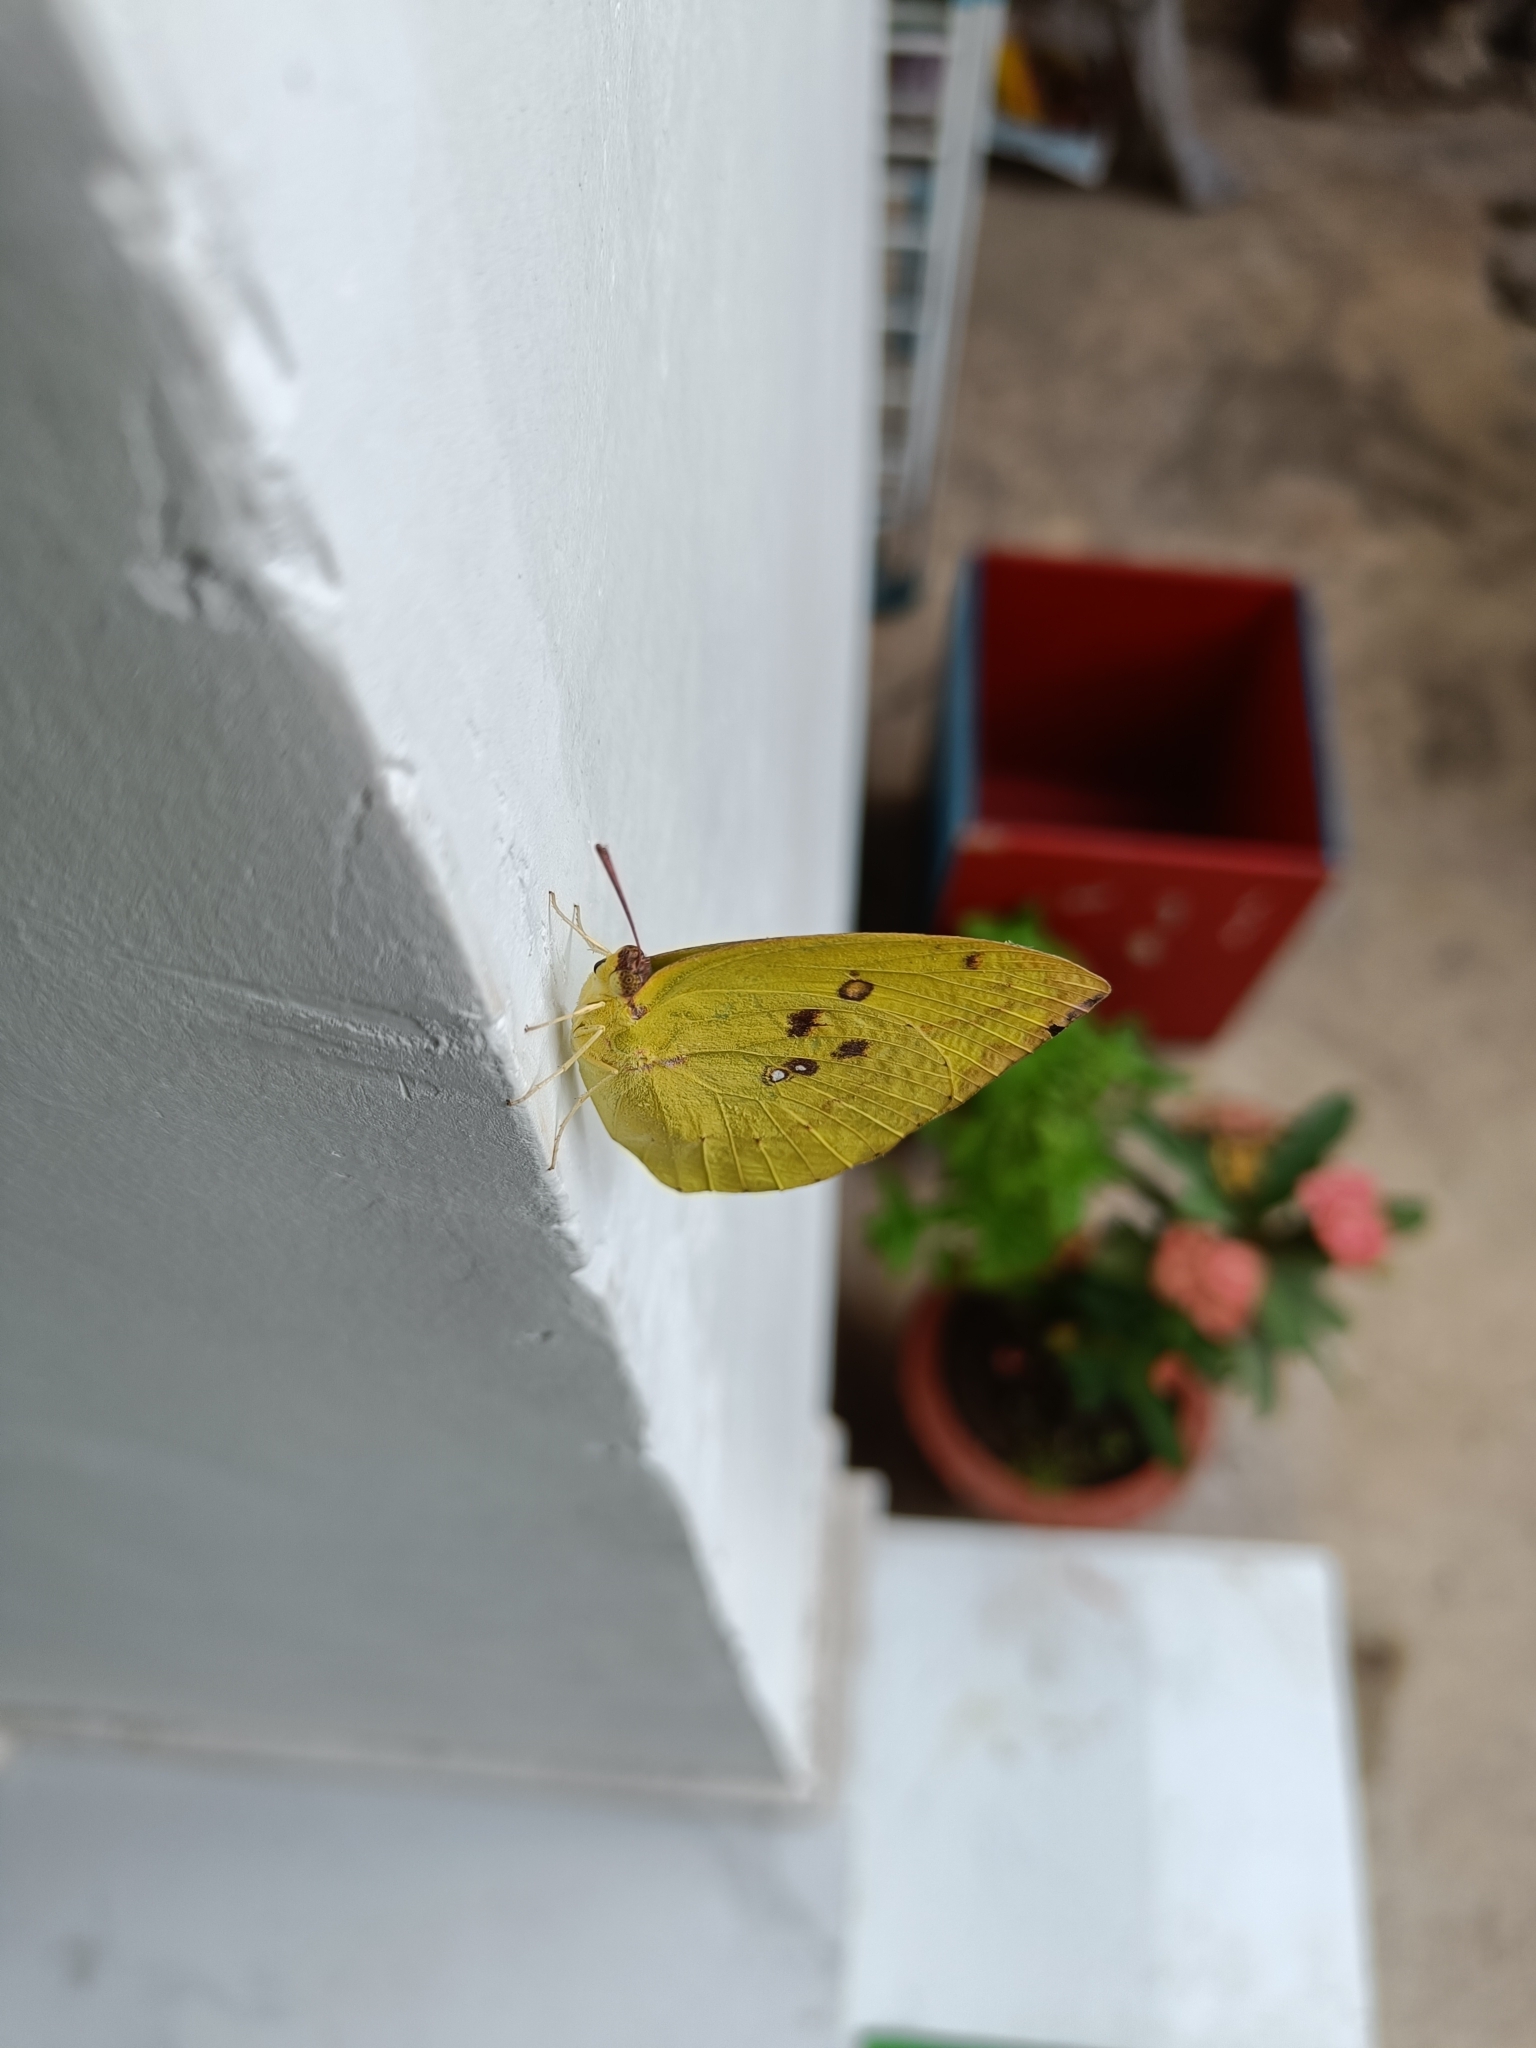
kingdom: Animalia
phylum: Arthropoda
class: Insecta
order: Lepidoptera
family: Pieridae
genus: Catopsilia
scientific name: Catopsilia pomona
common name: Common emigrant
